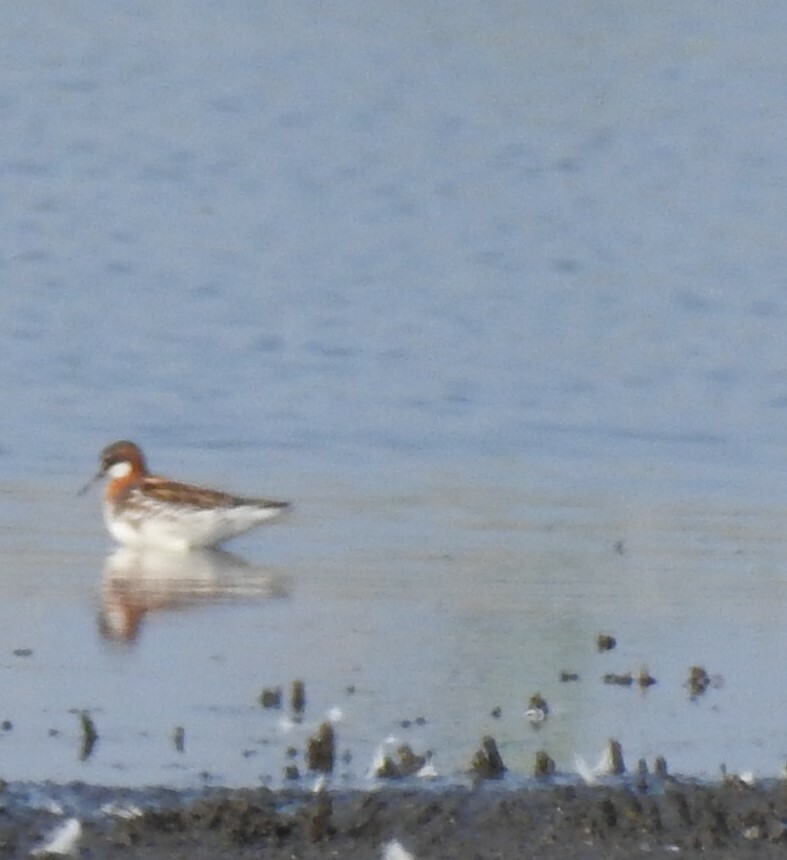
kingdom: Animalia
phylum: Chordata
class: Aves
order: Charadriiformes
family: Scolopacidae
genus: Phalaropus
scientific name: Phalaropus lobatus
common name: Red-necked phalarope
